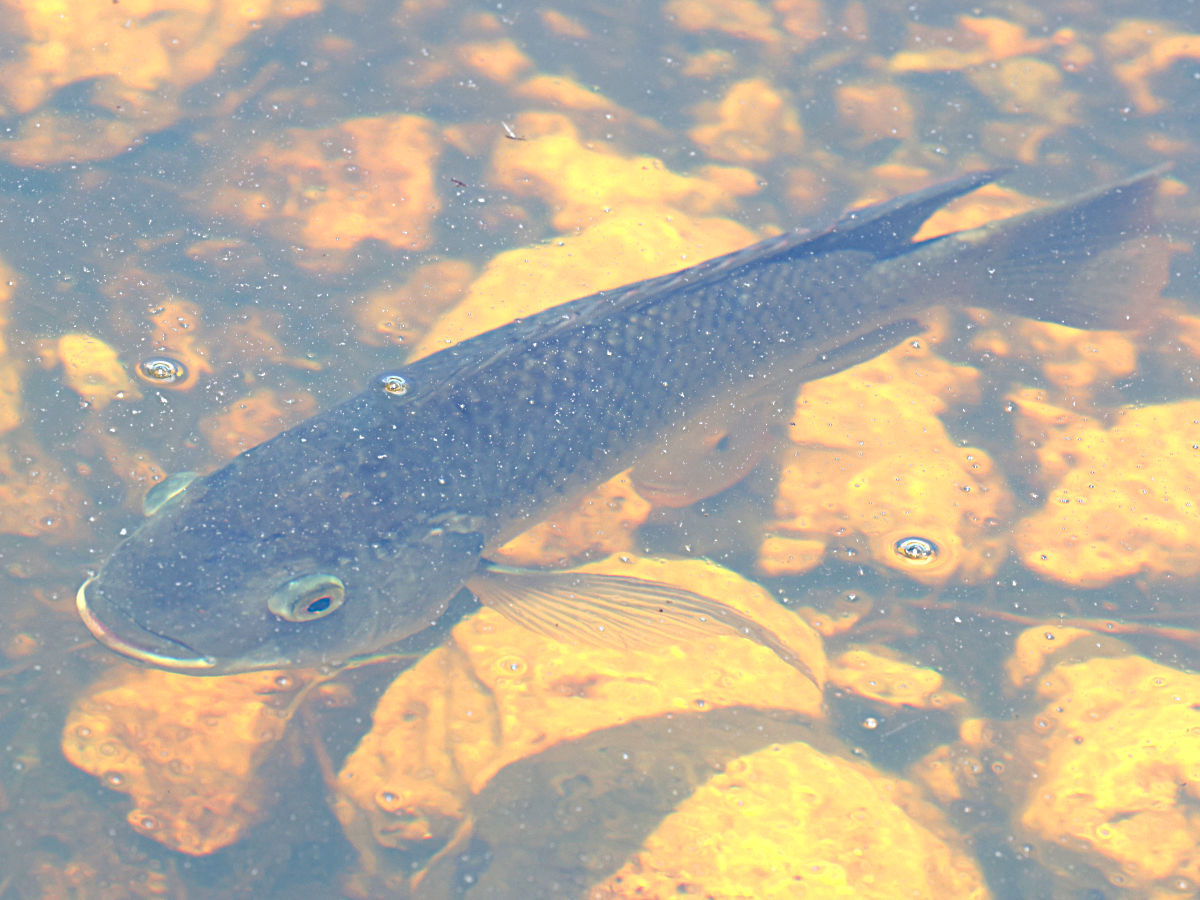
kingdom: Animalia
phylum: Chordata
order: Perciformes
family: Cichlidae
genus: Oreochromis
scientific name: Oreochromis aureus
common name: Blue tilapia
